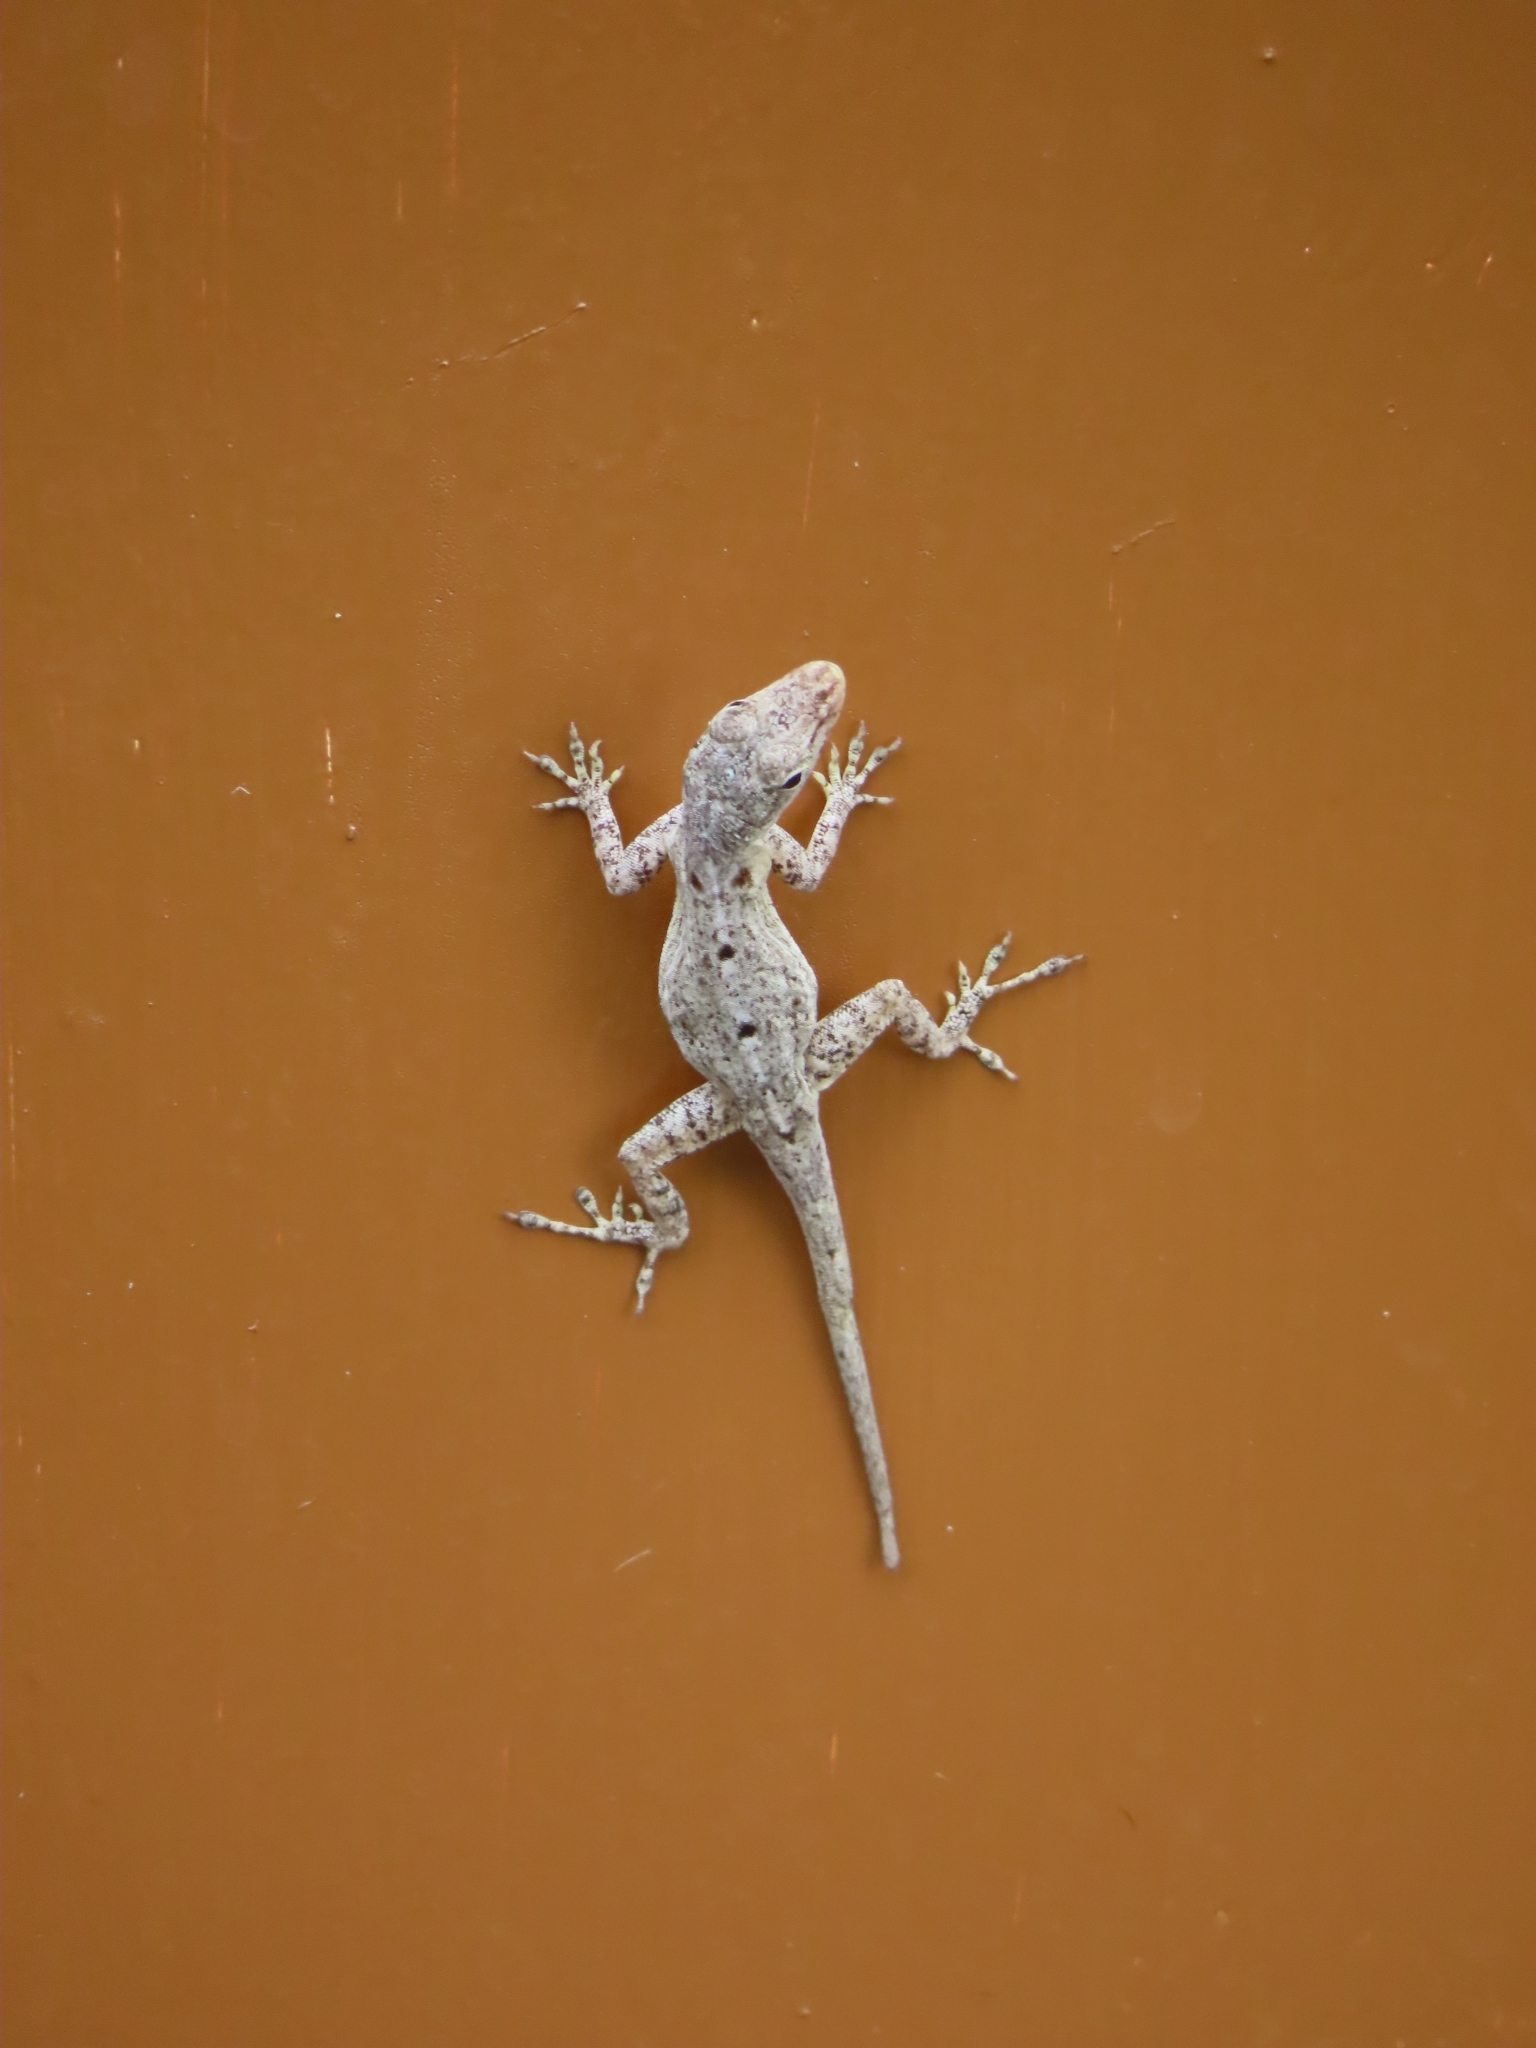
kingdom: Animalia
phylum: Chordata
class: Squamata
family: Dactyloidae
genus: Anolis
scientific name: Anolis stratulus
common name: Banded anole
